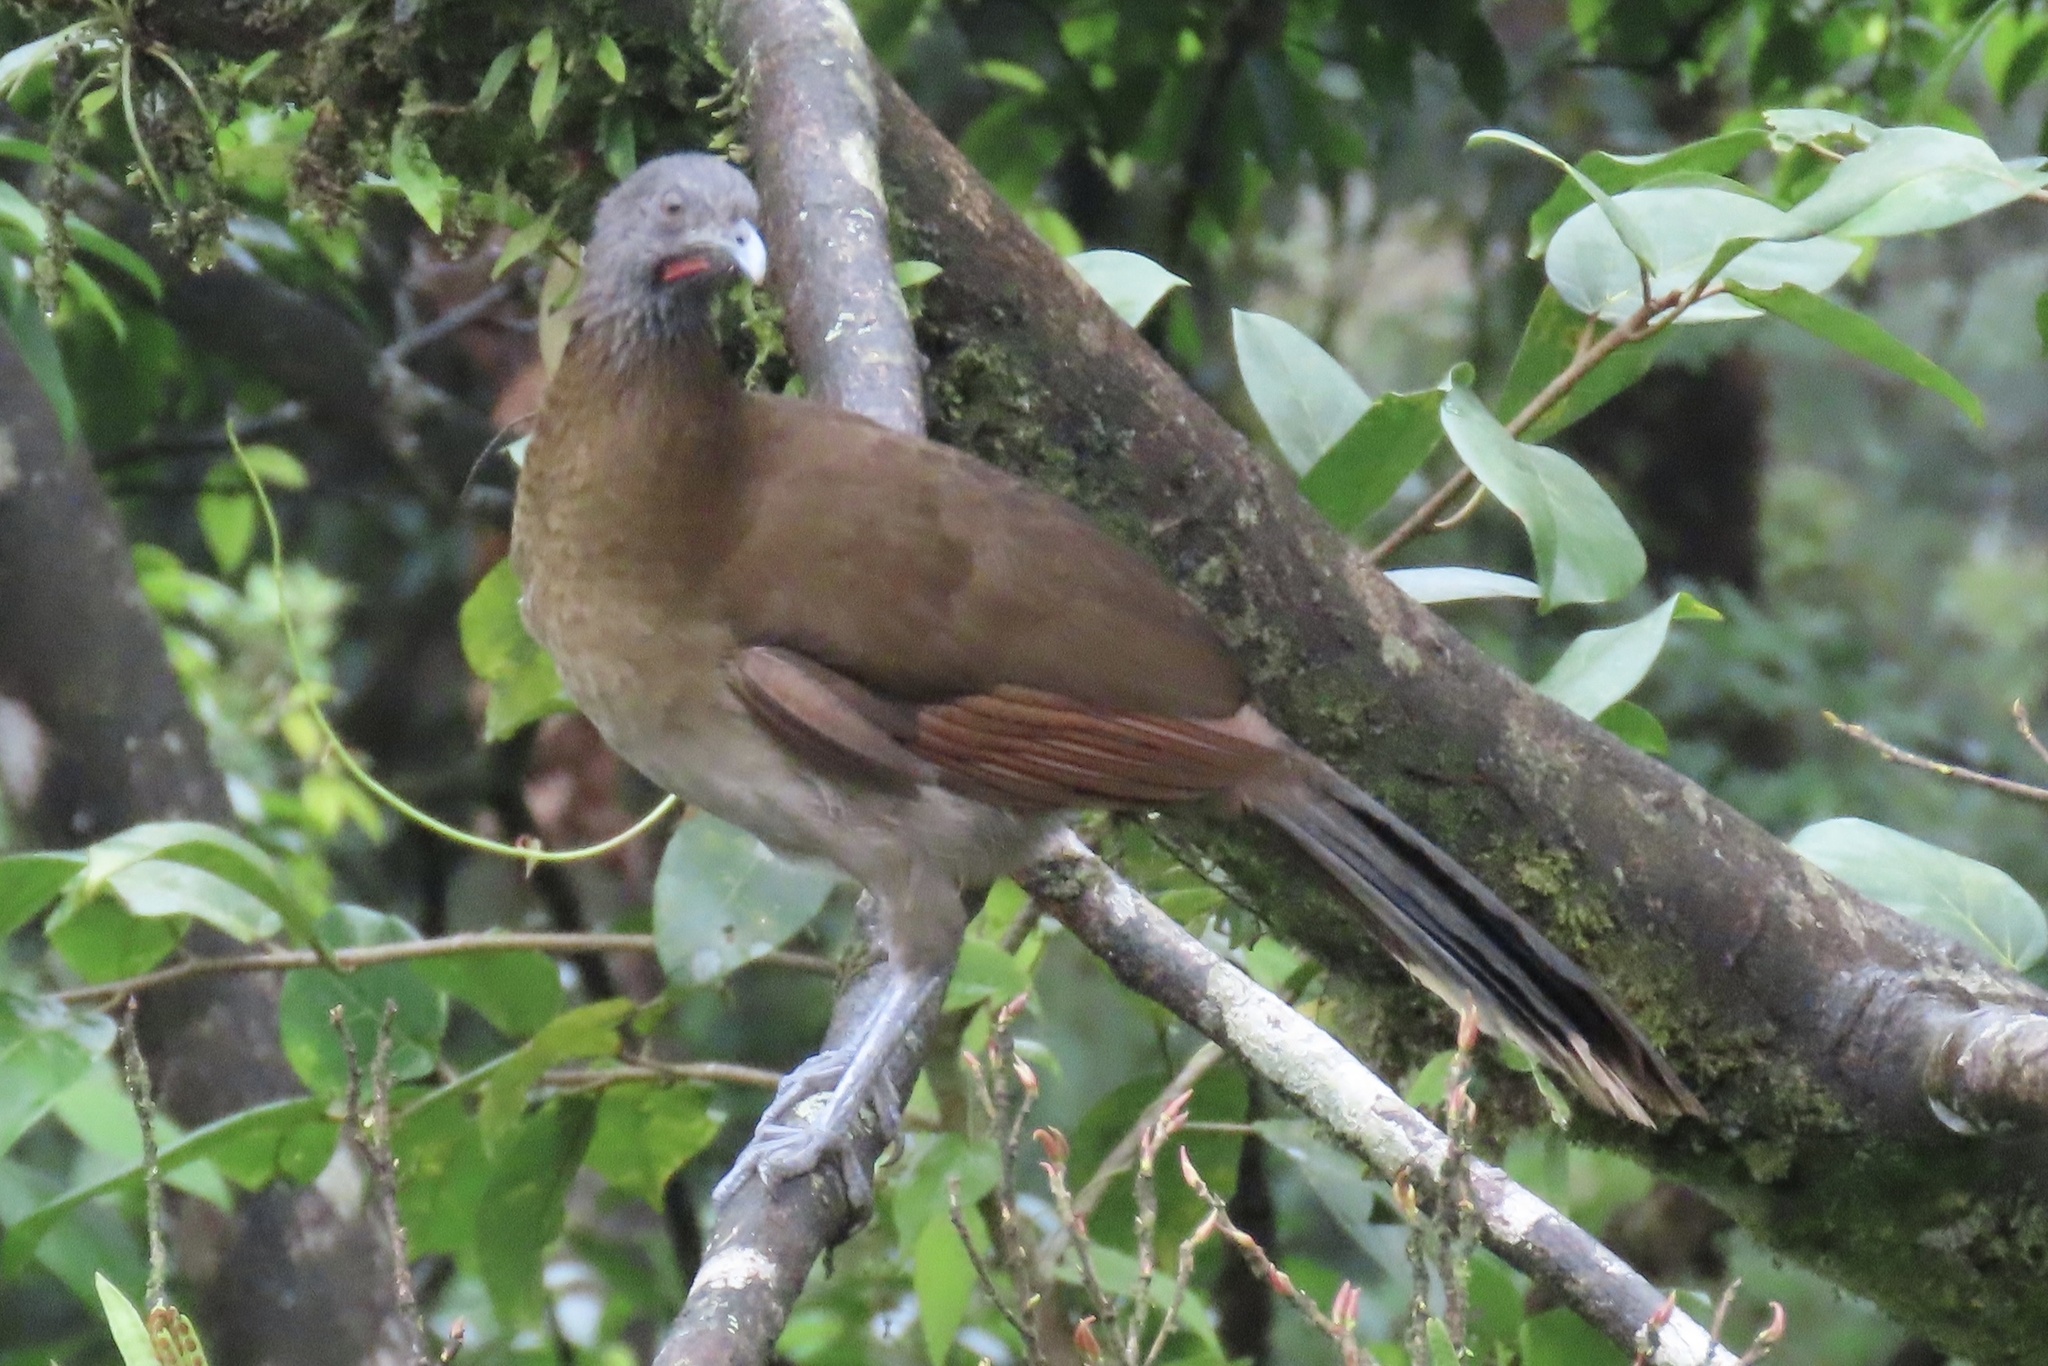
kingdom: Animalia
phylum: Chordata
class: Aves
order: Galliformes
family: Cracidae
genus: Ortalis
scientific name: Ortalis cinereiceps
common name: Grey-headed chachalaca
